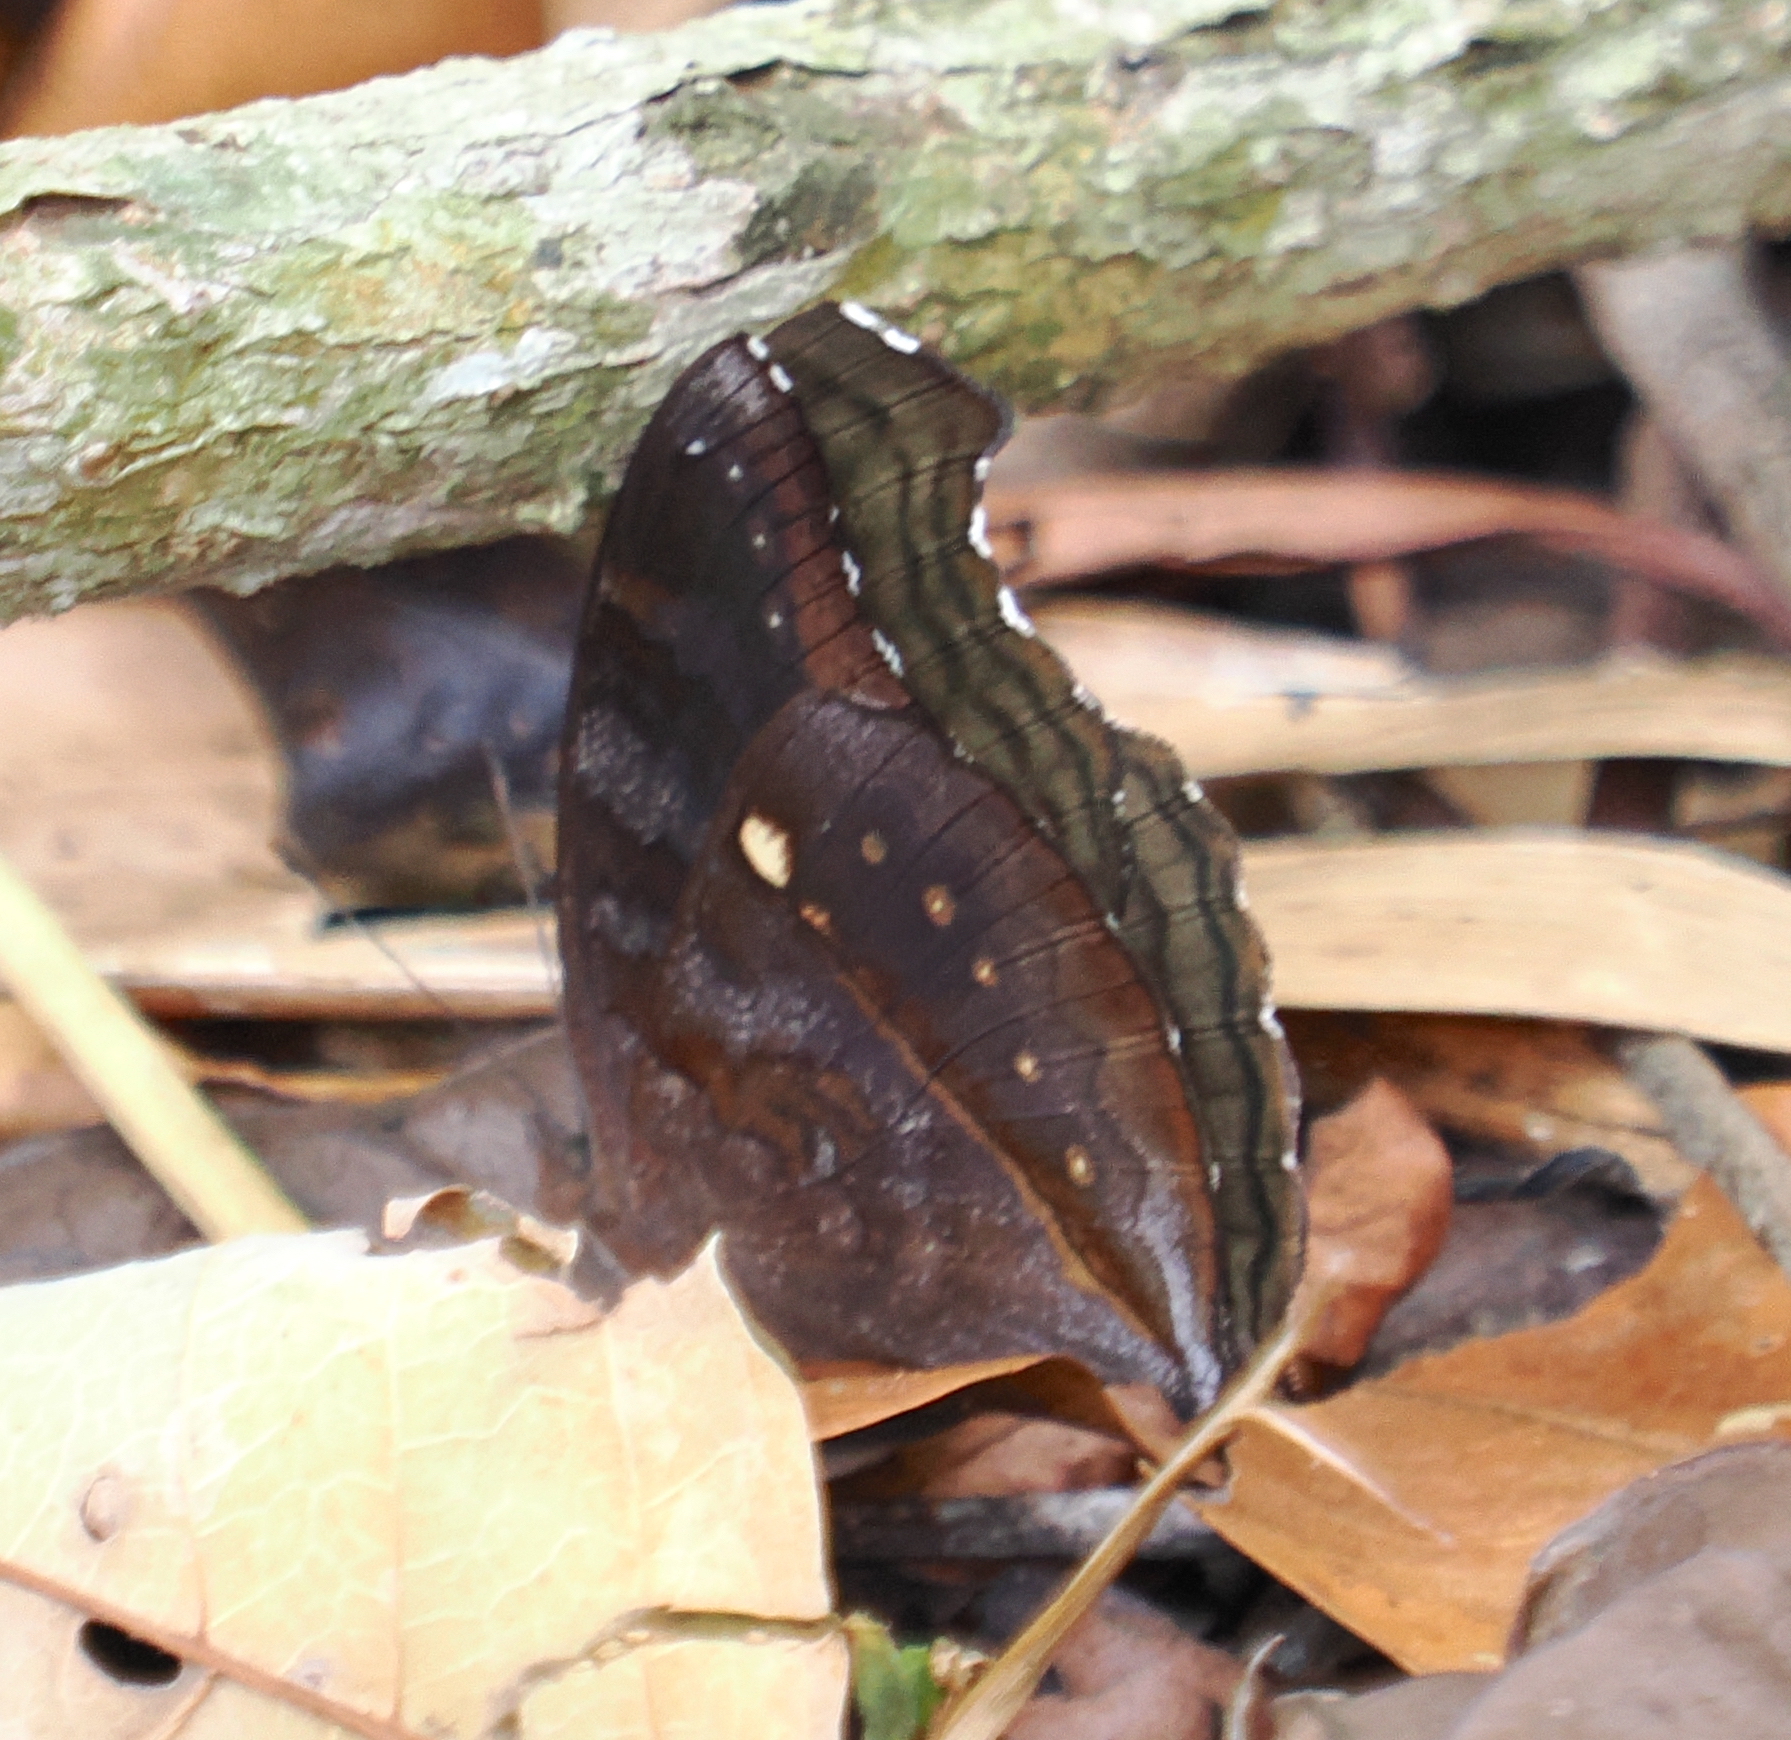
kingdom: Animalia
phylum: Arthropoda
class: Insecta
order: Lepidoptera
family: Nymphalidae
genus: Junonia
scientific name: Junonia iphita
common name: Chocolate pansy
